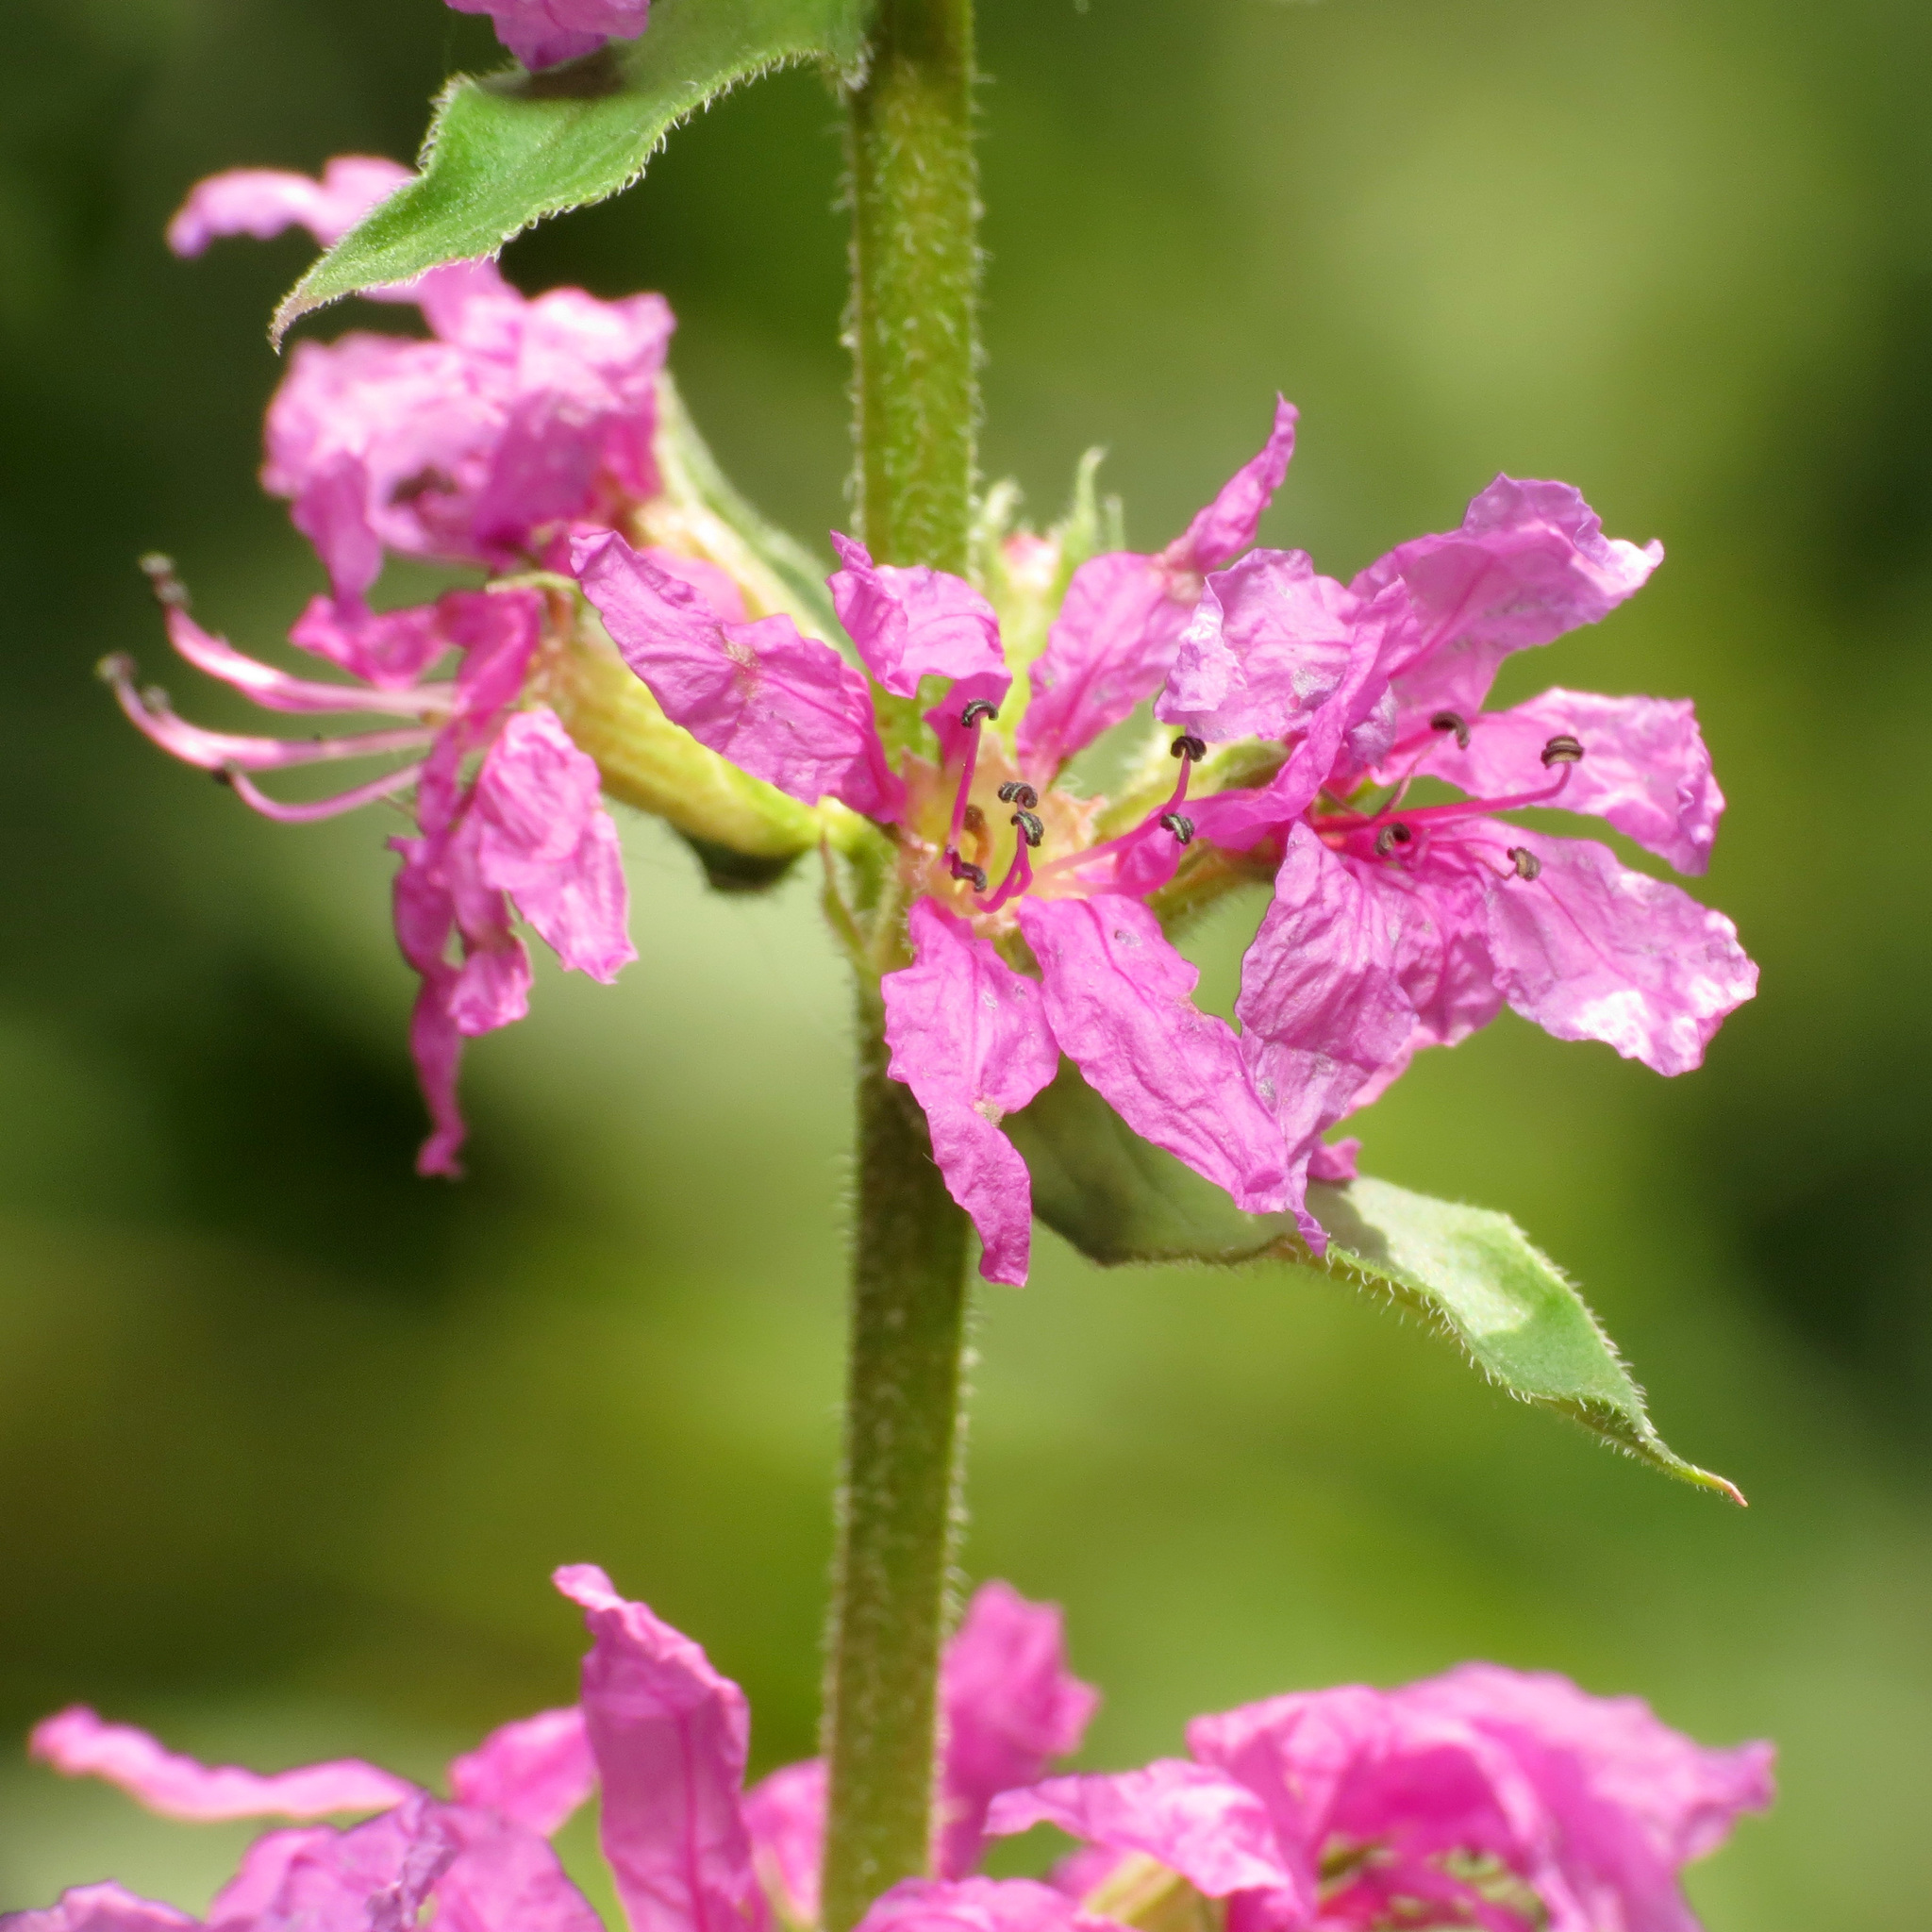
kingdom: Plantae
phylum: Tracheophyta
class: Magnoliopsida
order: Myrtales
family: Lythraceae
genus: Lythrum
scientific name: Lythrum salicaria
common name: Purple loosestrife
